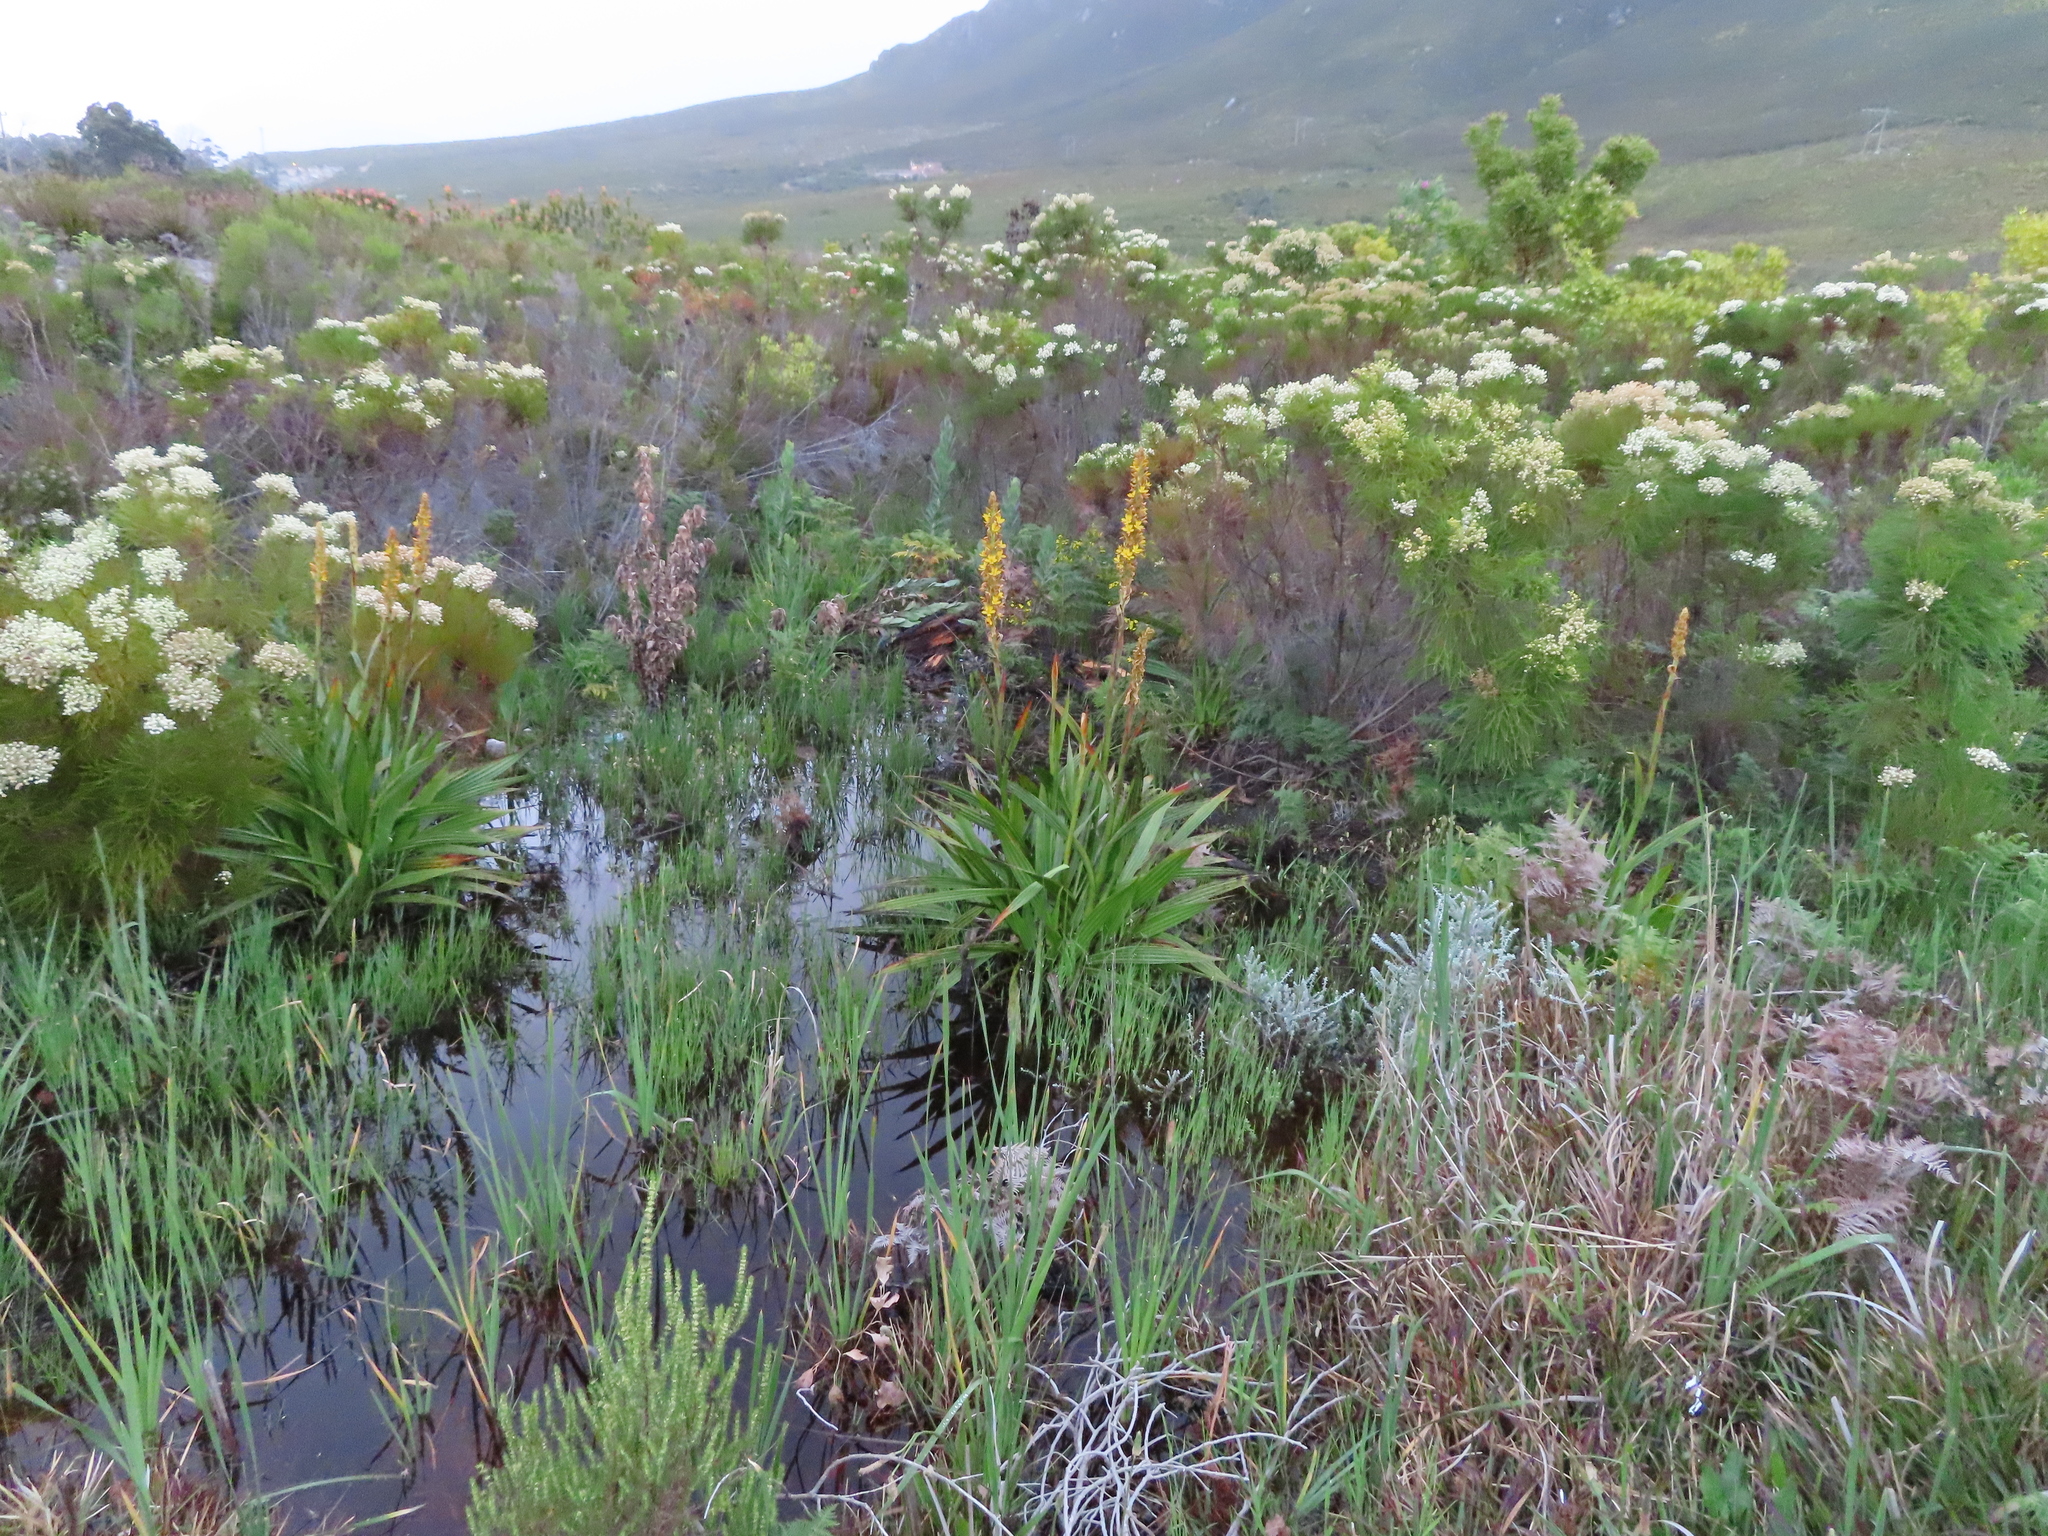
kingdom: Plantae
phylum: Tracheophyta
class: Magnoliopsida
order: Bruniales
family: Bruniaceae
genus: Berzelia
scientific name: Berzelia lanuginosa
